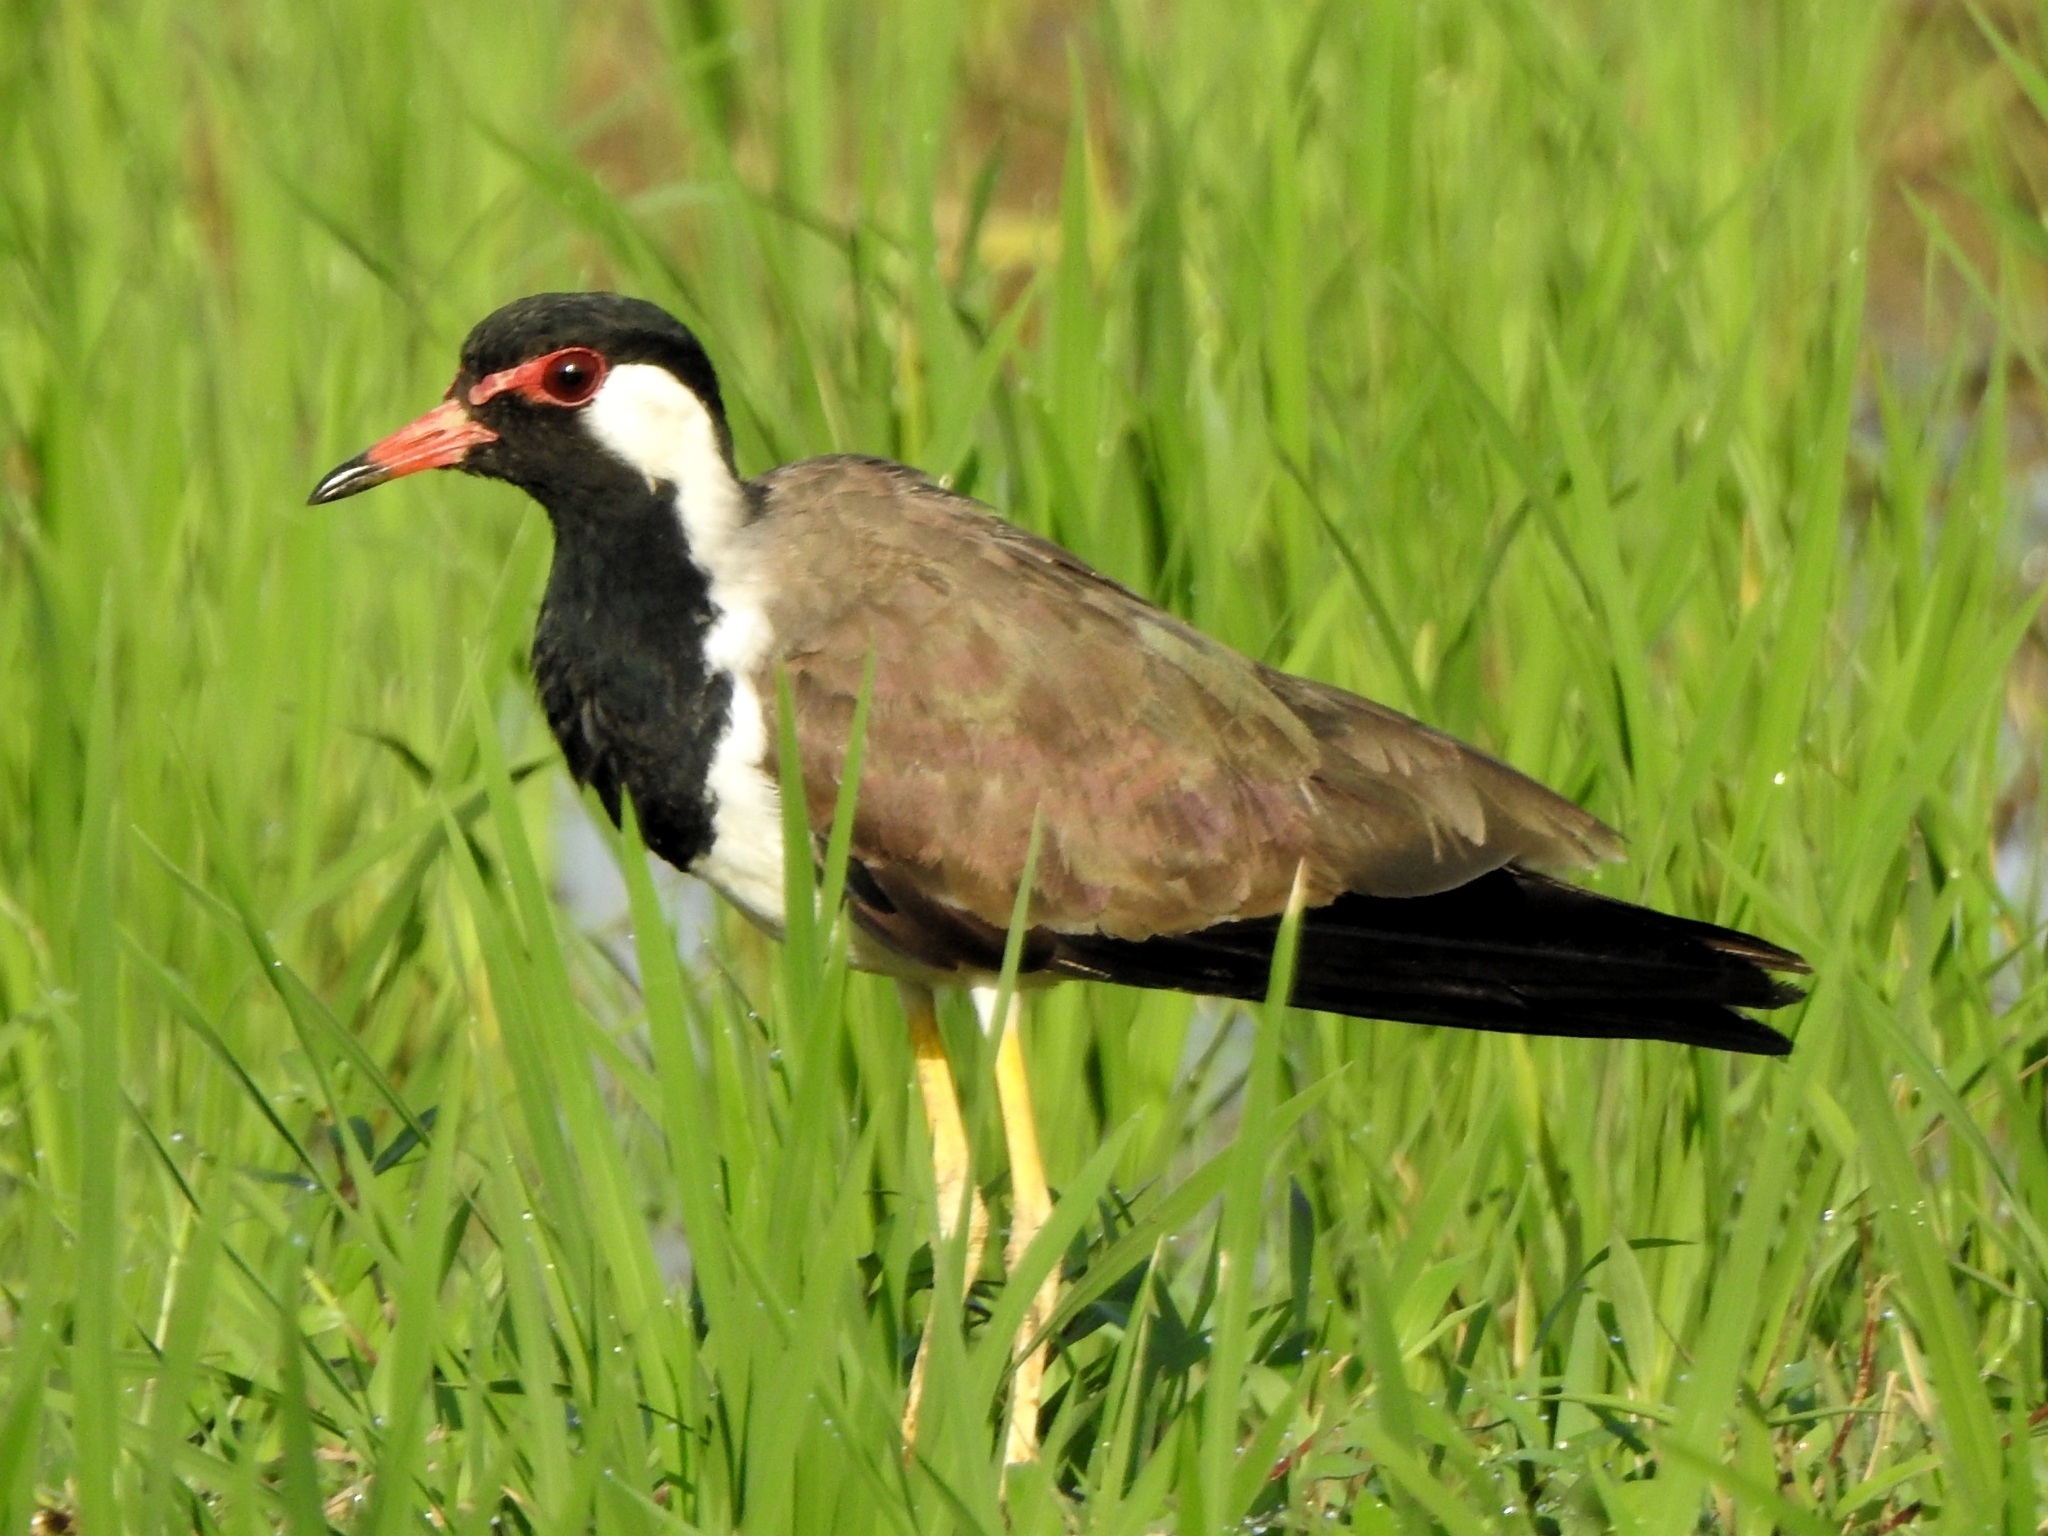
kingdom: Animalia
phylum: Chordata
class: Aves
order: Charadriiformes
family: Charadriidae
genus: Vanellus
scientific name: Vanellus indicus
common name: Red-wattled lapwing
